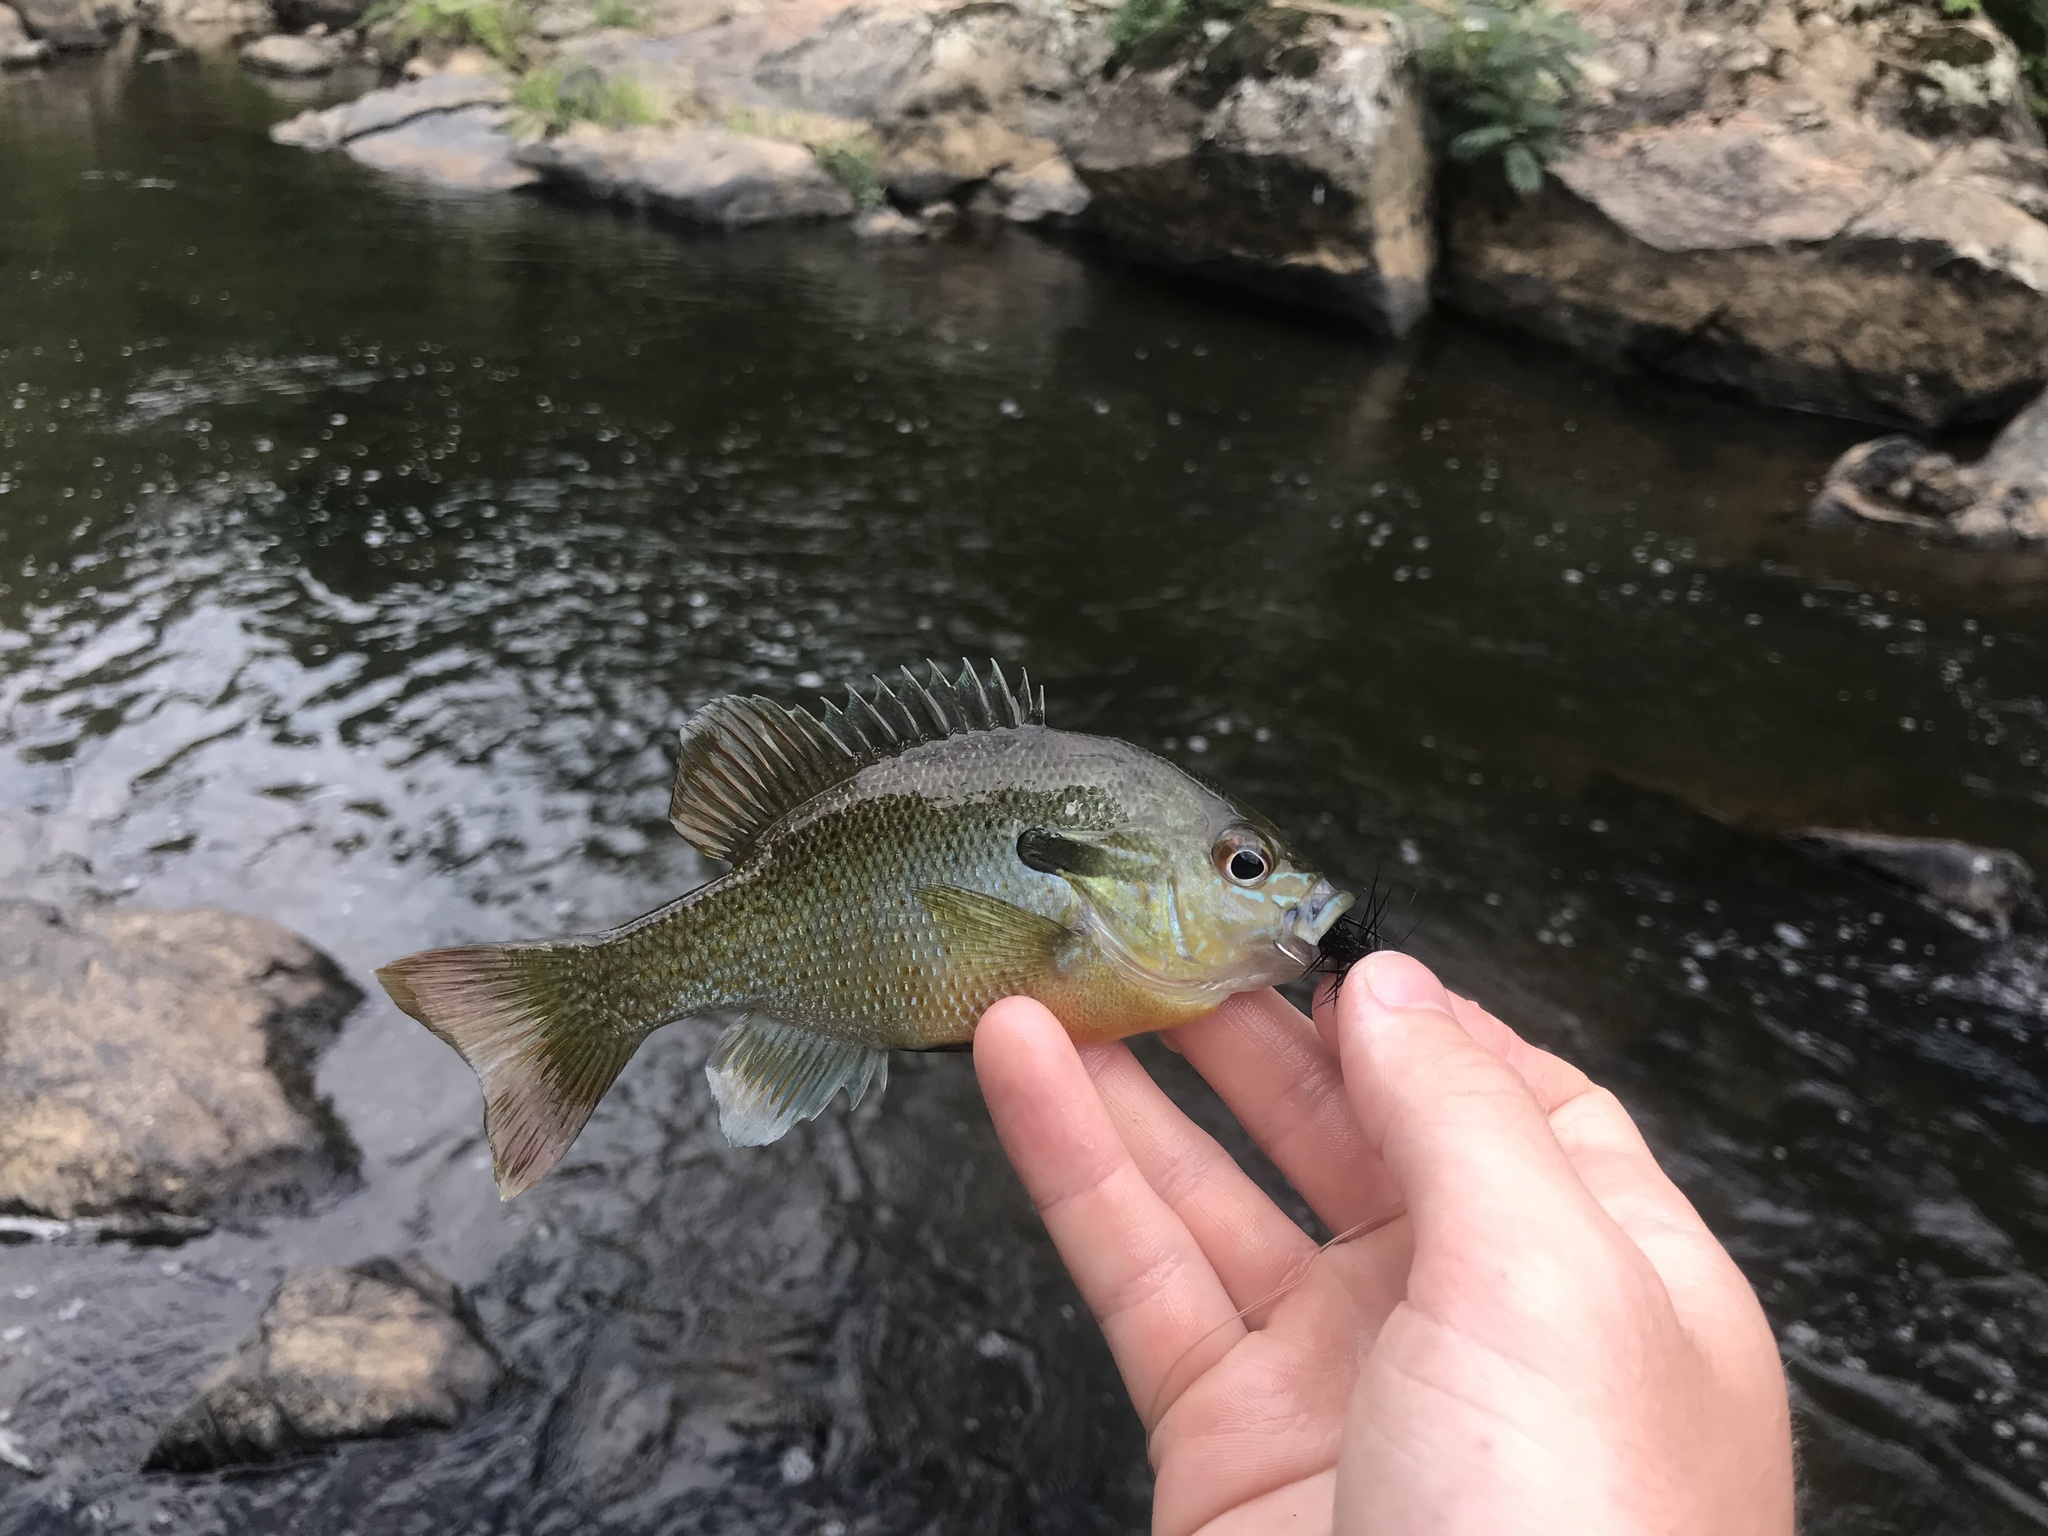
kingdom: Animalia
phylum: Chordata
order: Perciformes
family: Centrarchidae
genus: Lepomis
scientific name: Lepomis auritus
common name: Redbreast sunfish
